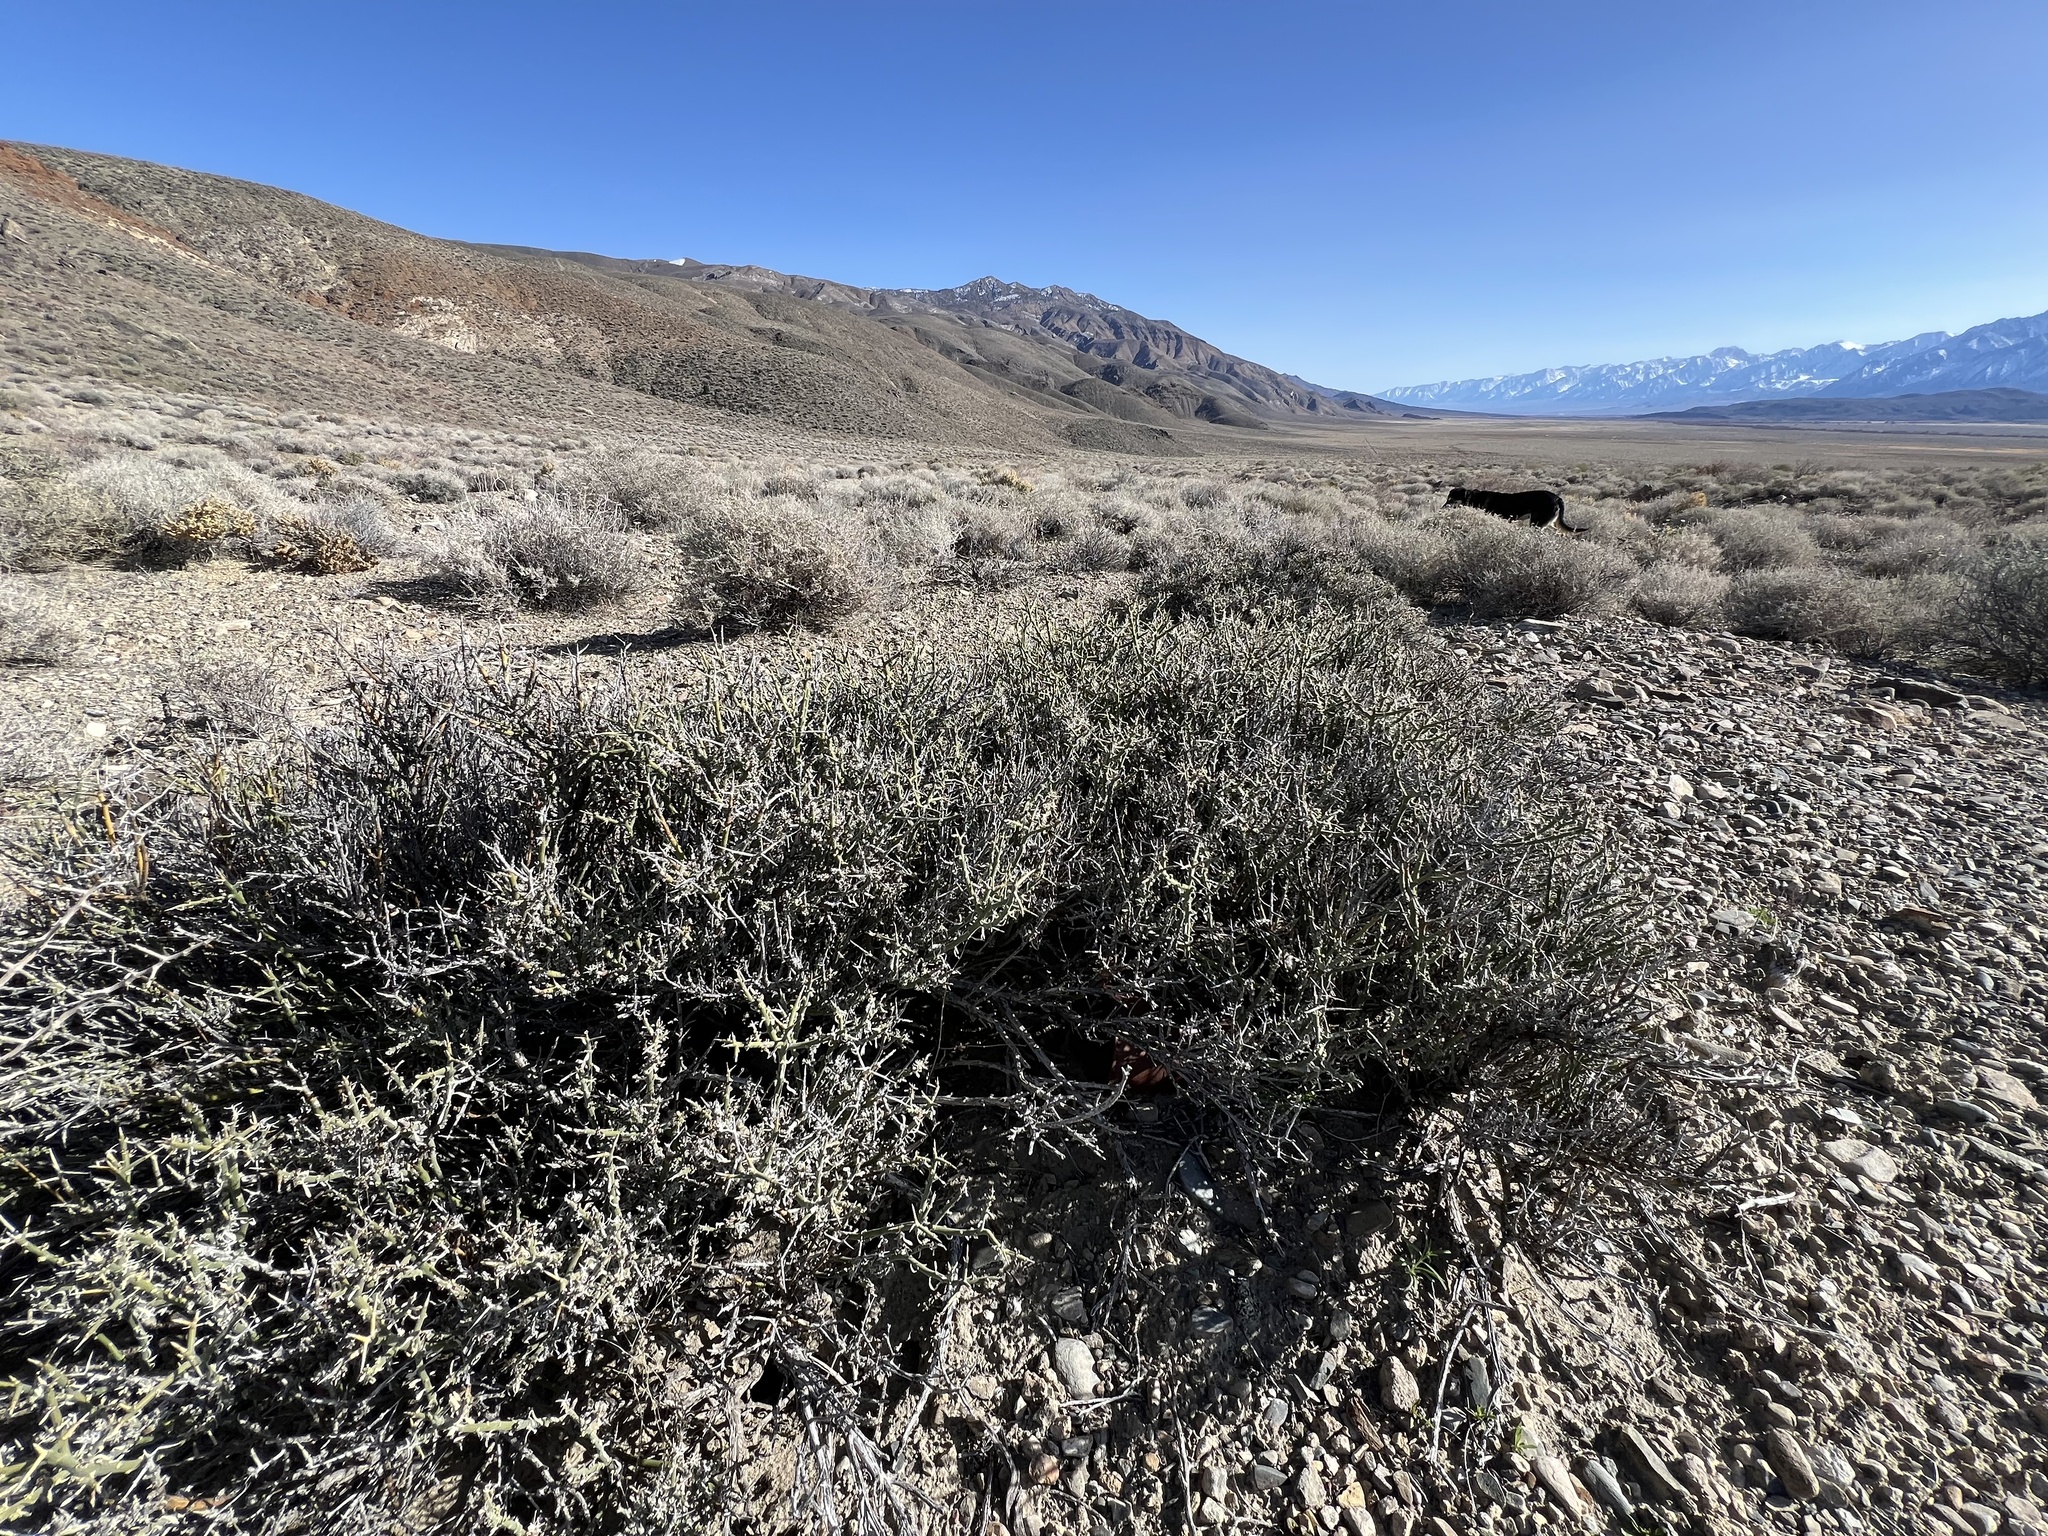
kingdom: Plantae
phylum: Tracheophyta
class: Magnoliopsida
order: Lamiales
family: Oleaceae
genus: Menodora
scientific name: Menodora spinescens
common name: Spiny menodora
